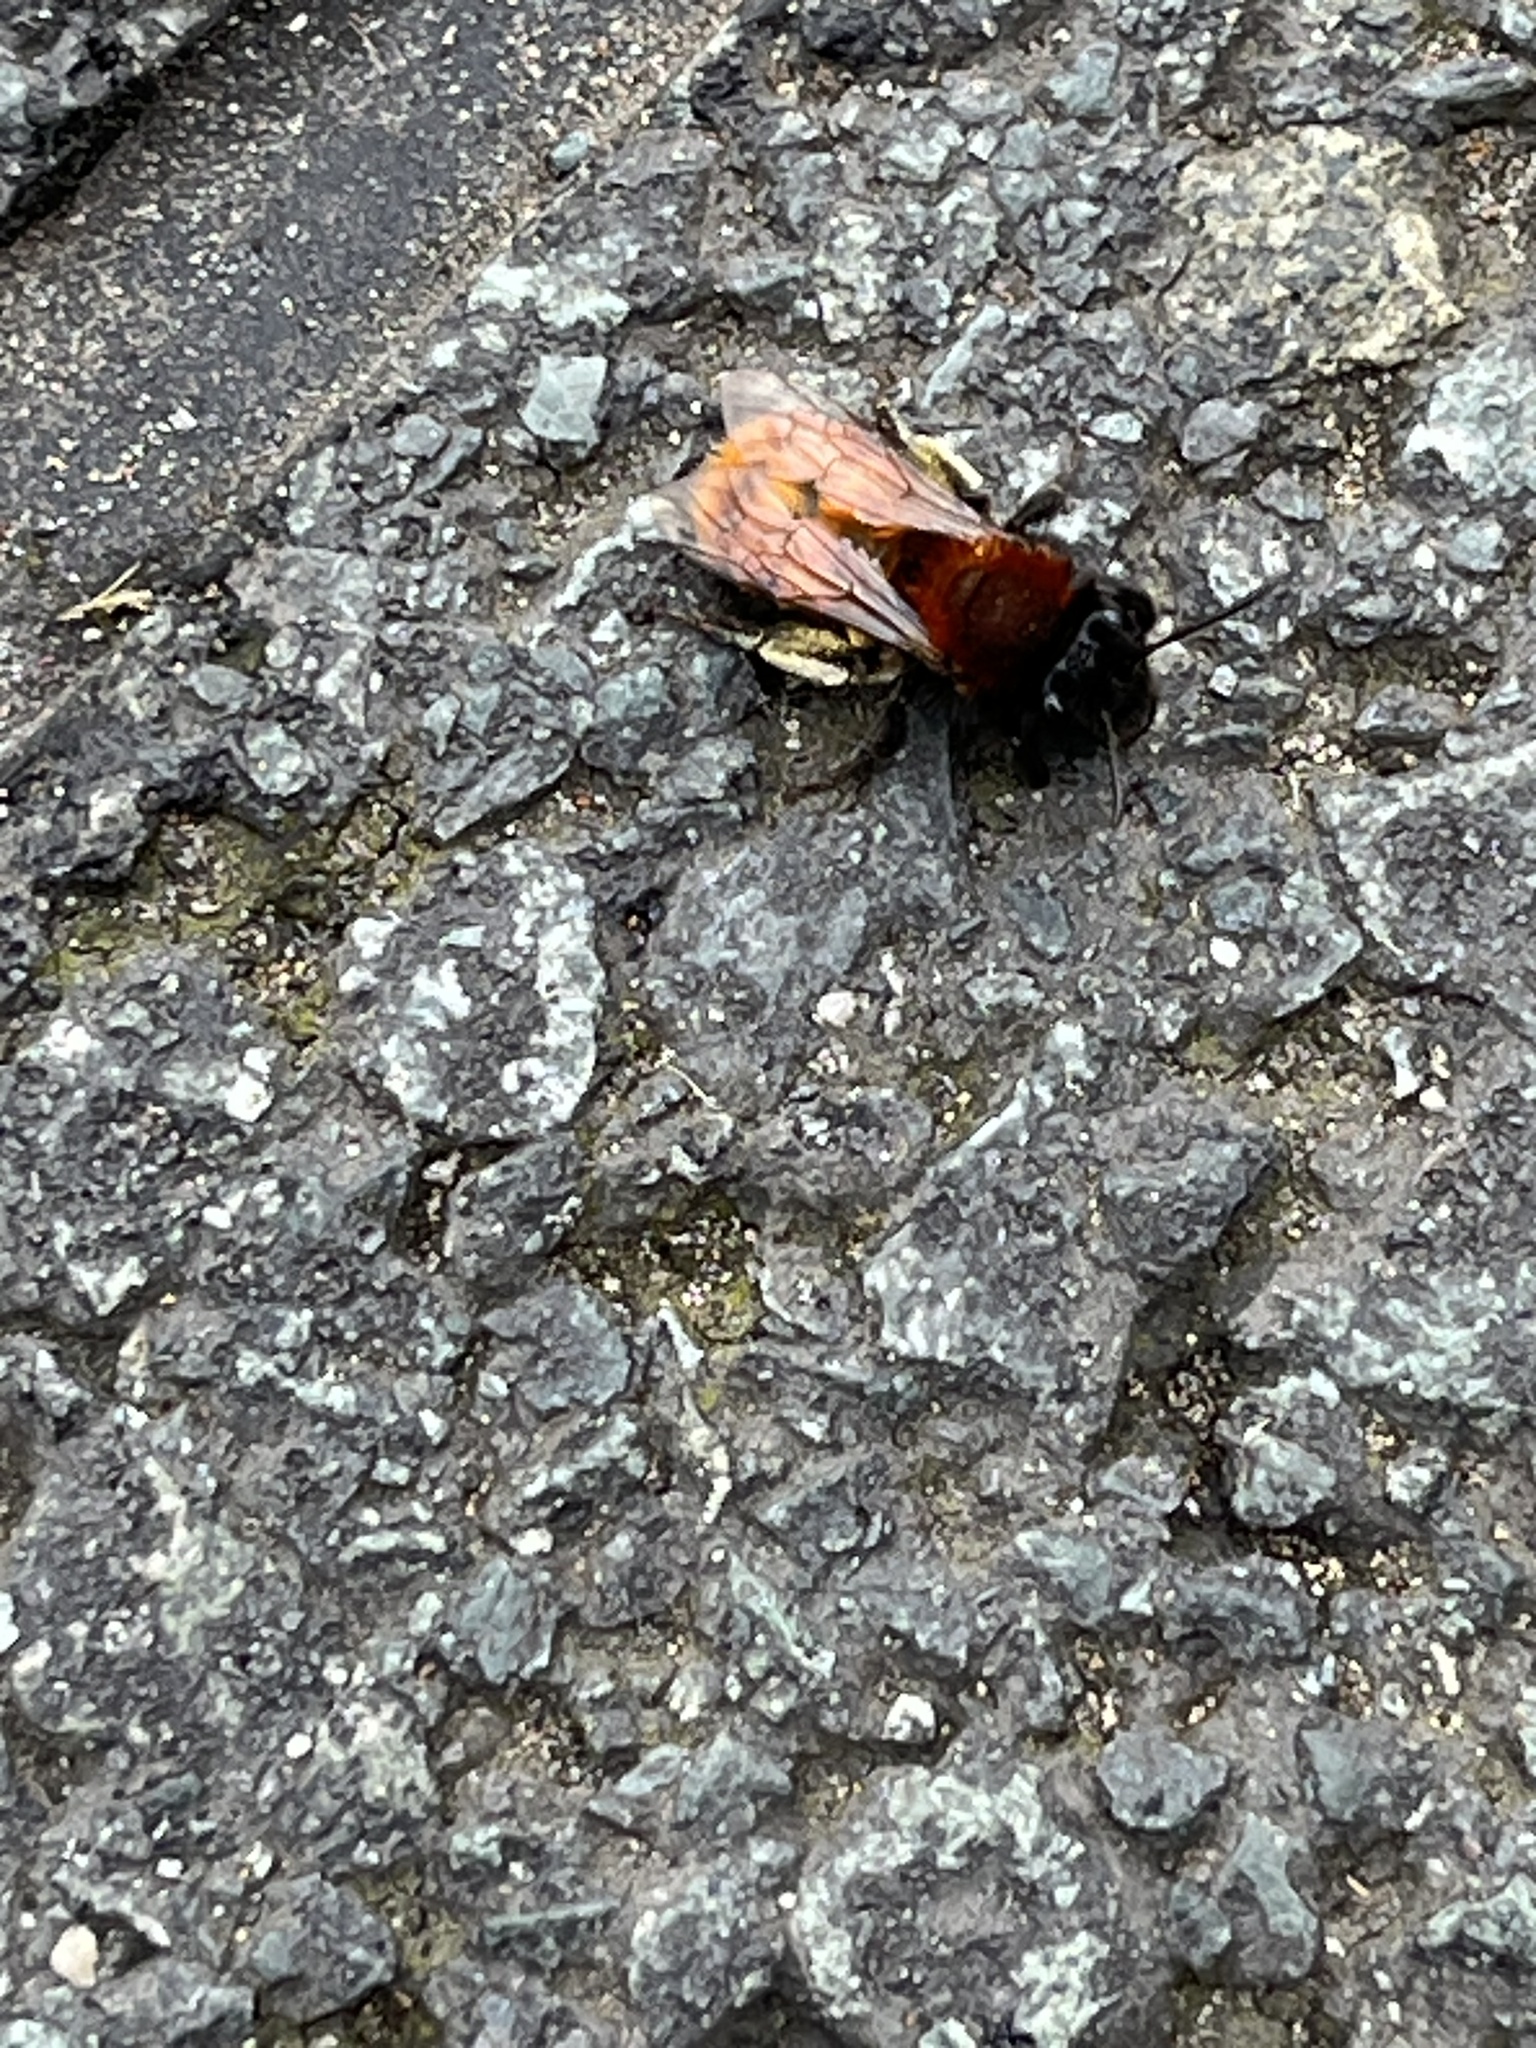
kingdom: Animalia
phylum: Arthropoda
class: Insecta
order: Hymenoptera
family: Andrenidae
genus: Andrena
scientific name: Andrena fulva
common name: Tawny mining bee
